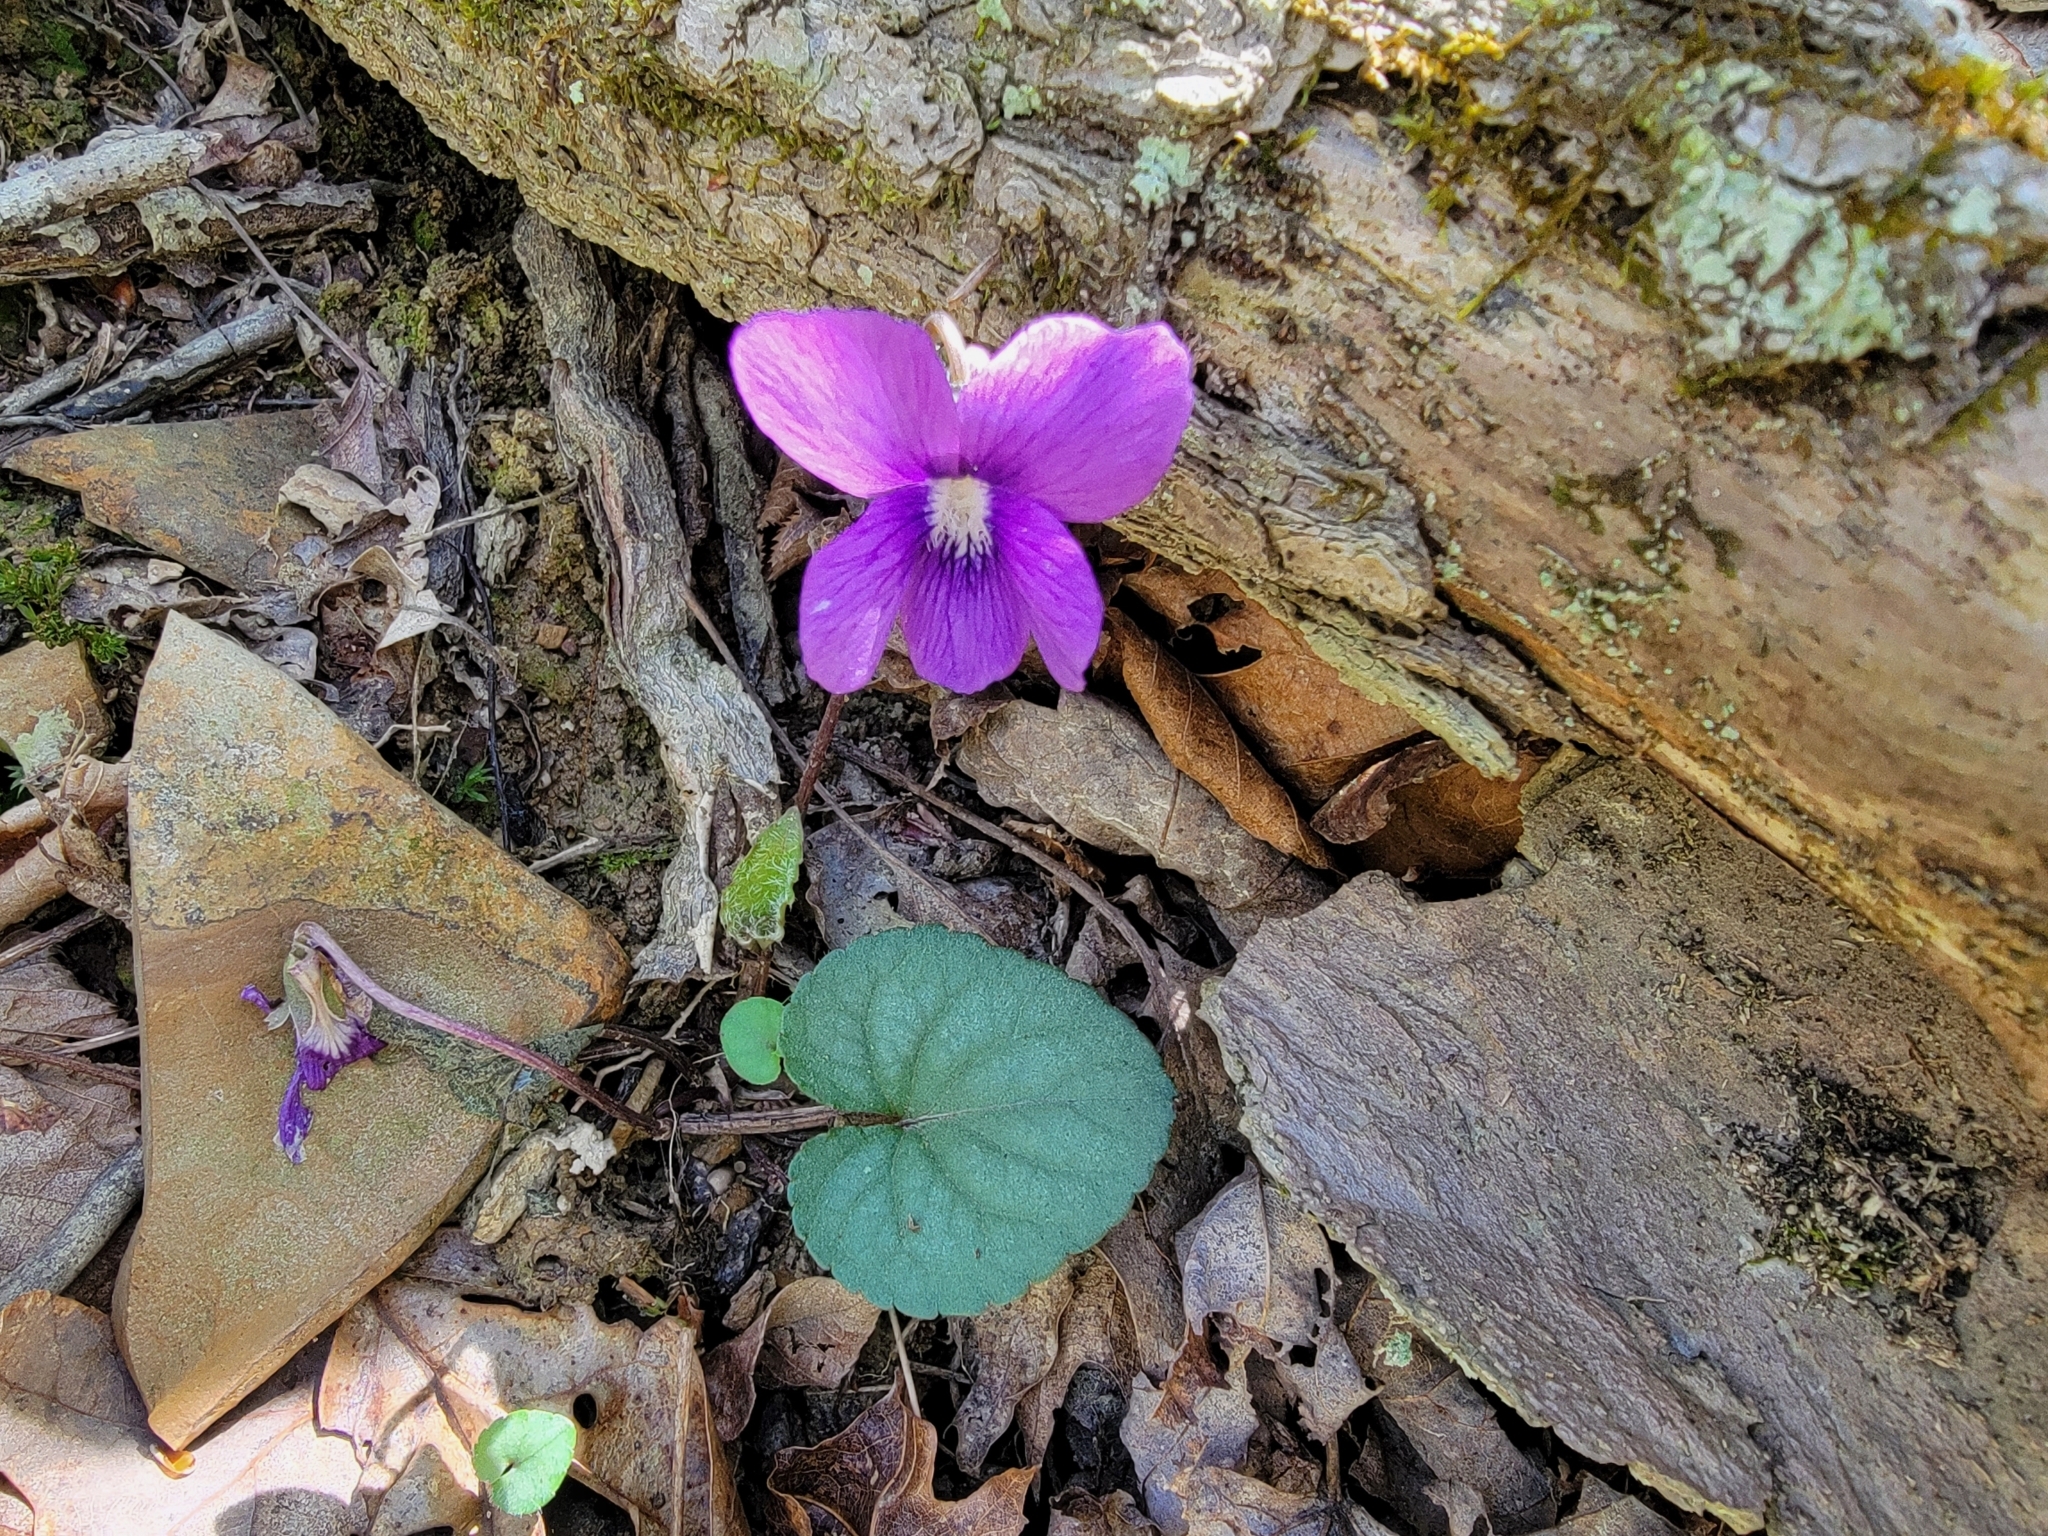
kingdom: Plantae
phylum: Tracheophyta
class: Magnoliopsida
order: Malpighiales
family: Violaceae
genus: Viola
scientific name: Viola hirsutula
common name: Southern wood violet
